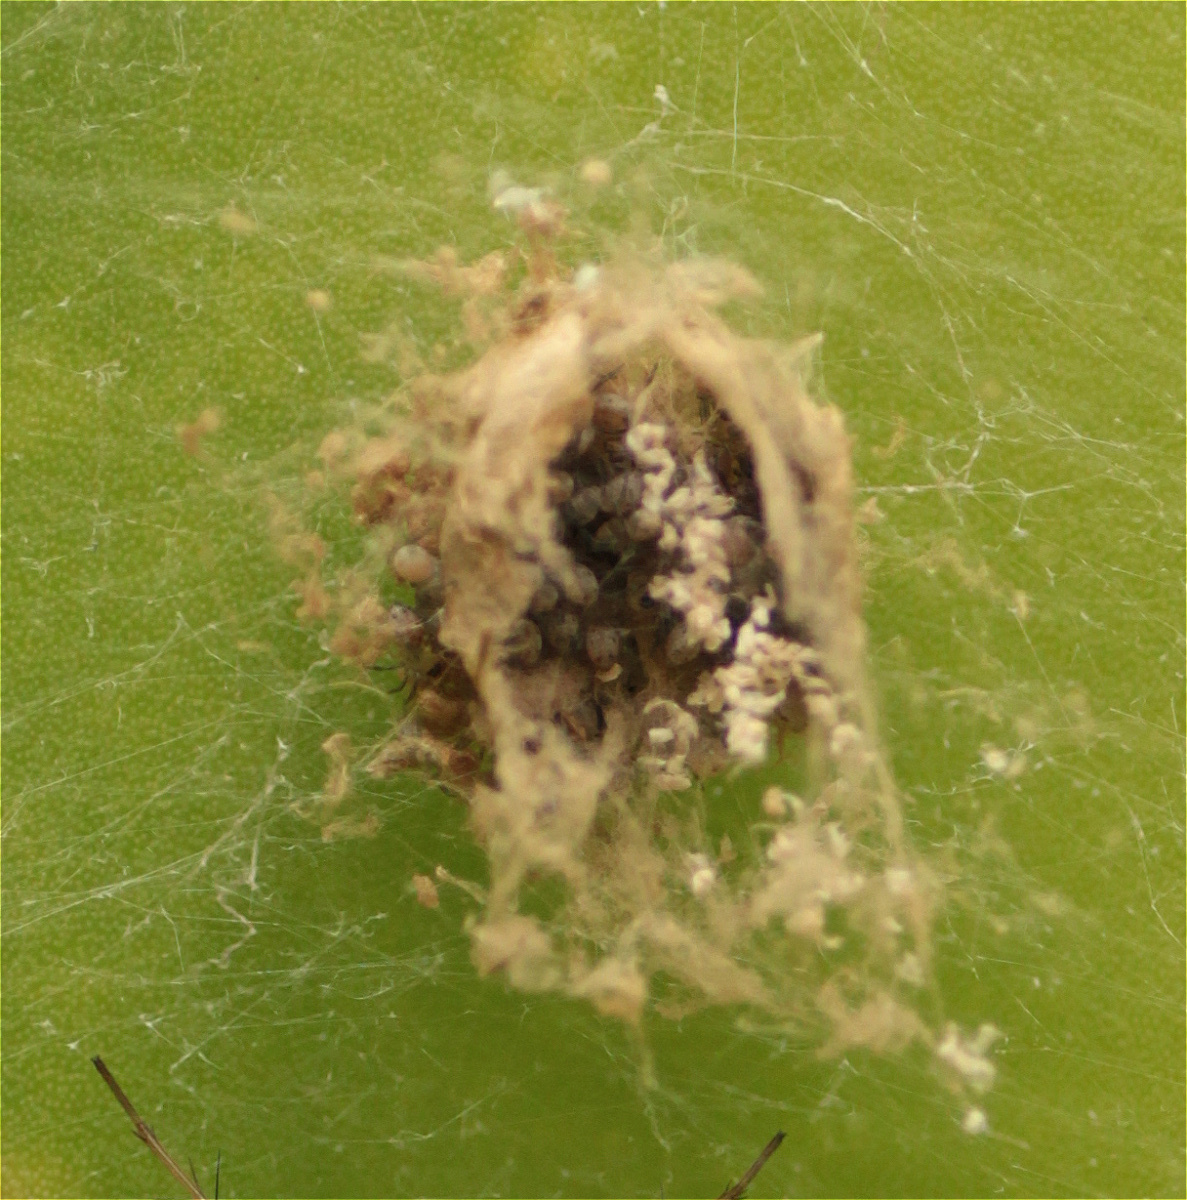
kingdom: Animalia
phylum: Arthropoda
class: Arachnida
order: Araneae
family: Oxyopidae
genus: Peucetia
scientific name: Peucetia rubrolineata
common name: Lynx spiders
